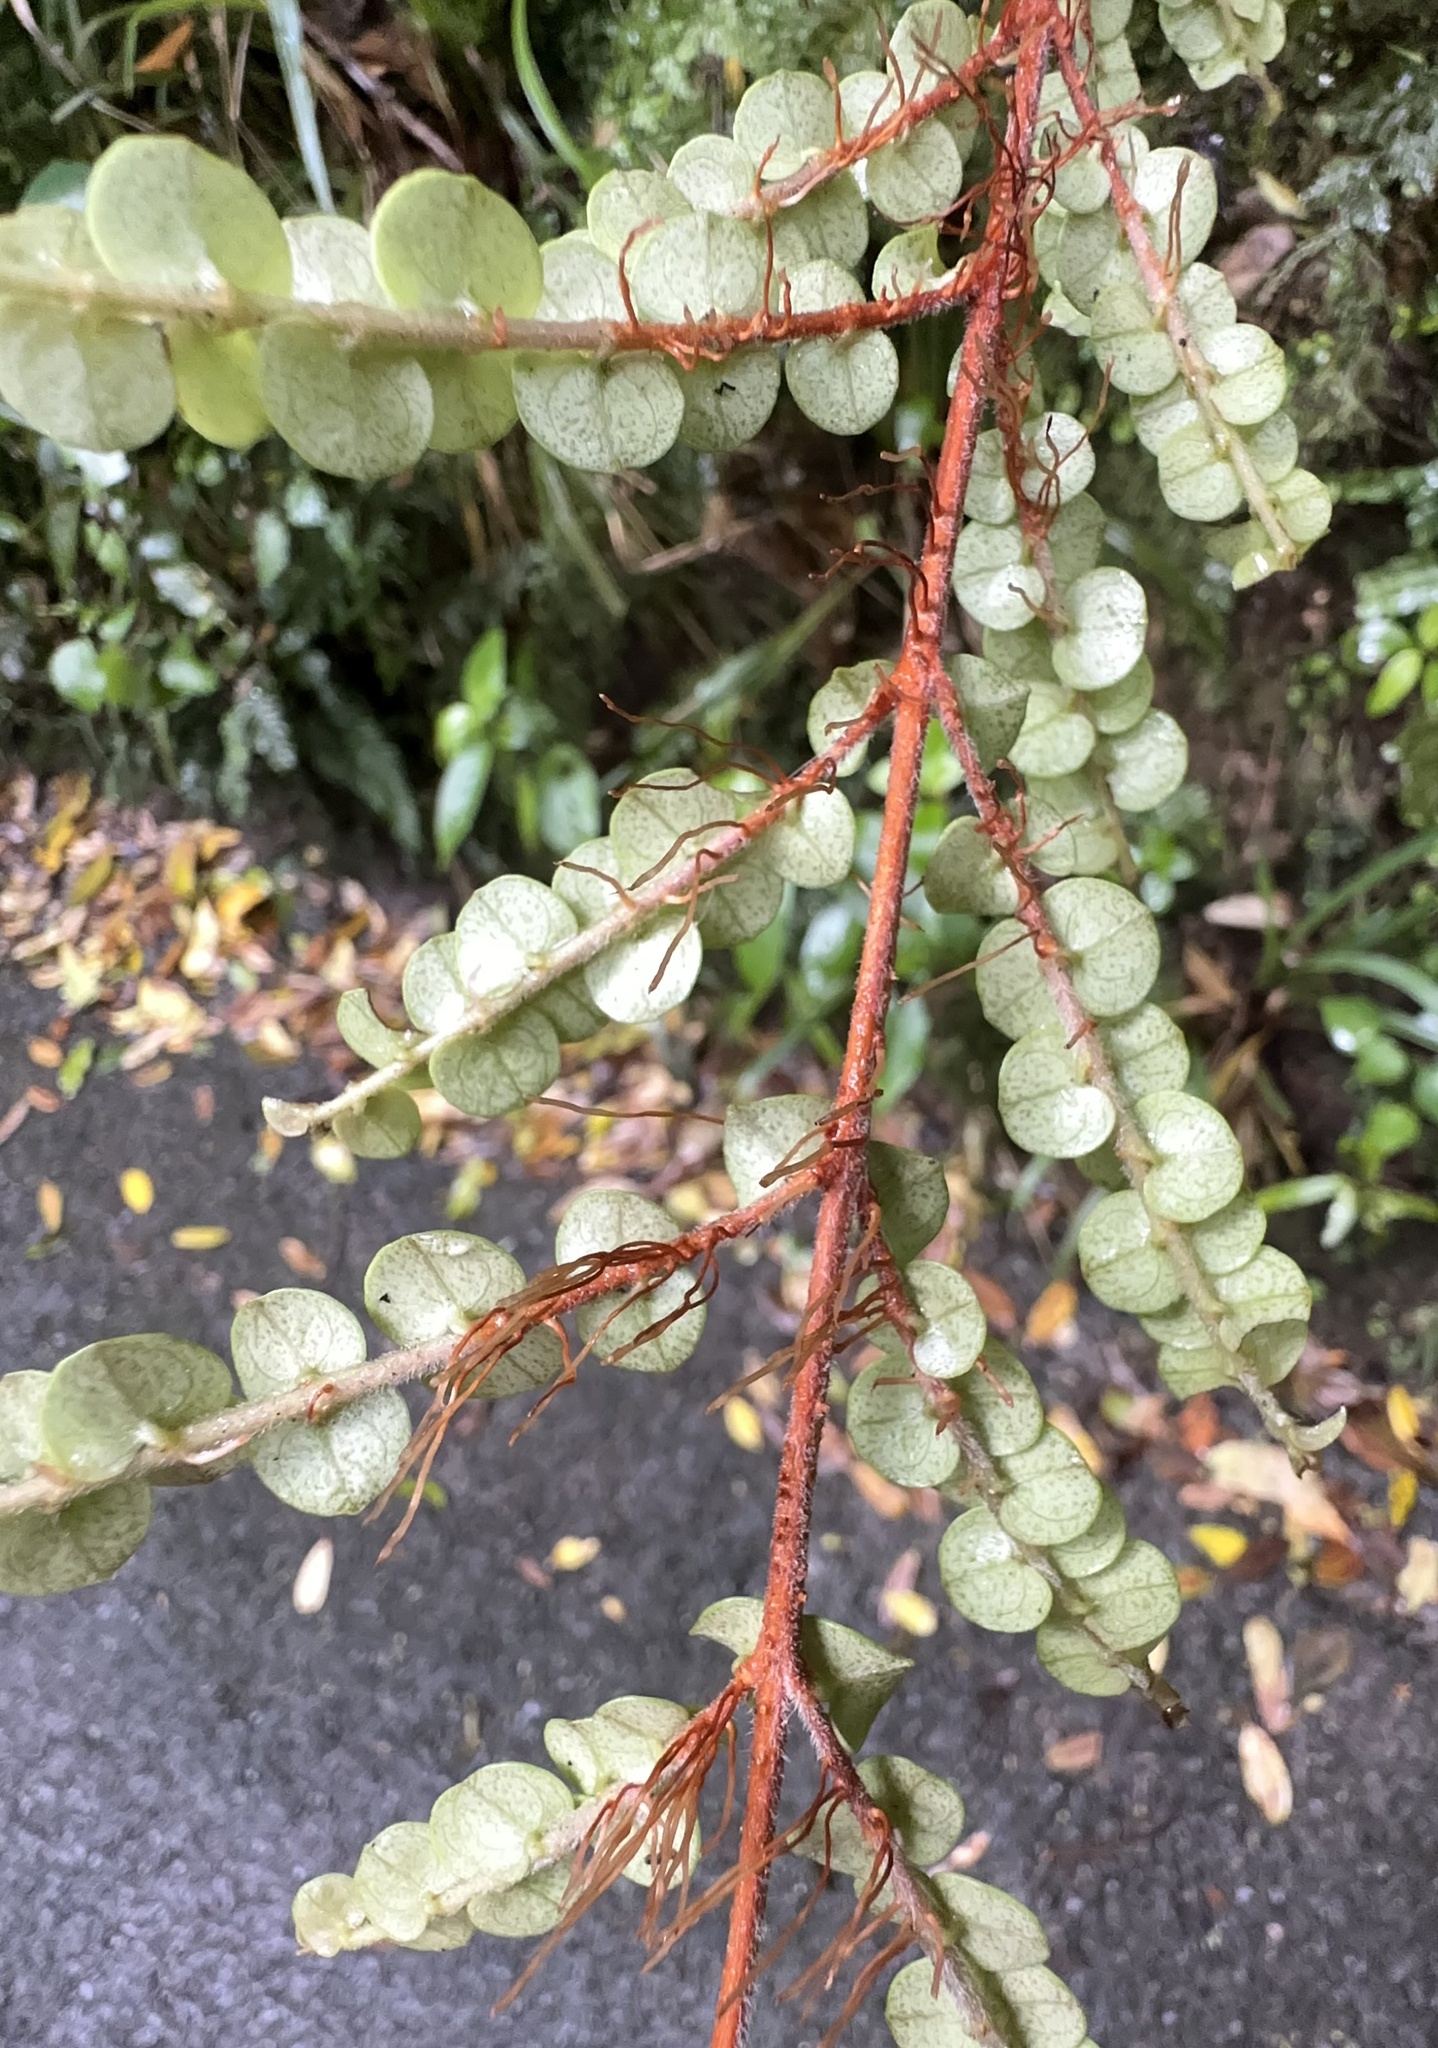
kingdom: Plantae
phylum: Tracheophyta
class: Magnoliopsida
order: Myrtales
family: Myrtaceae
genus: Metrosideros
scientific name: Metrosideros perforata
